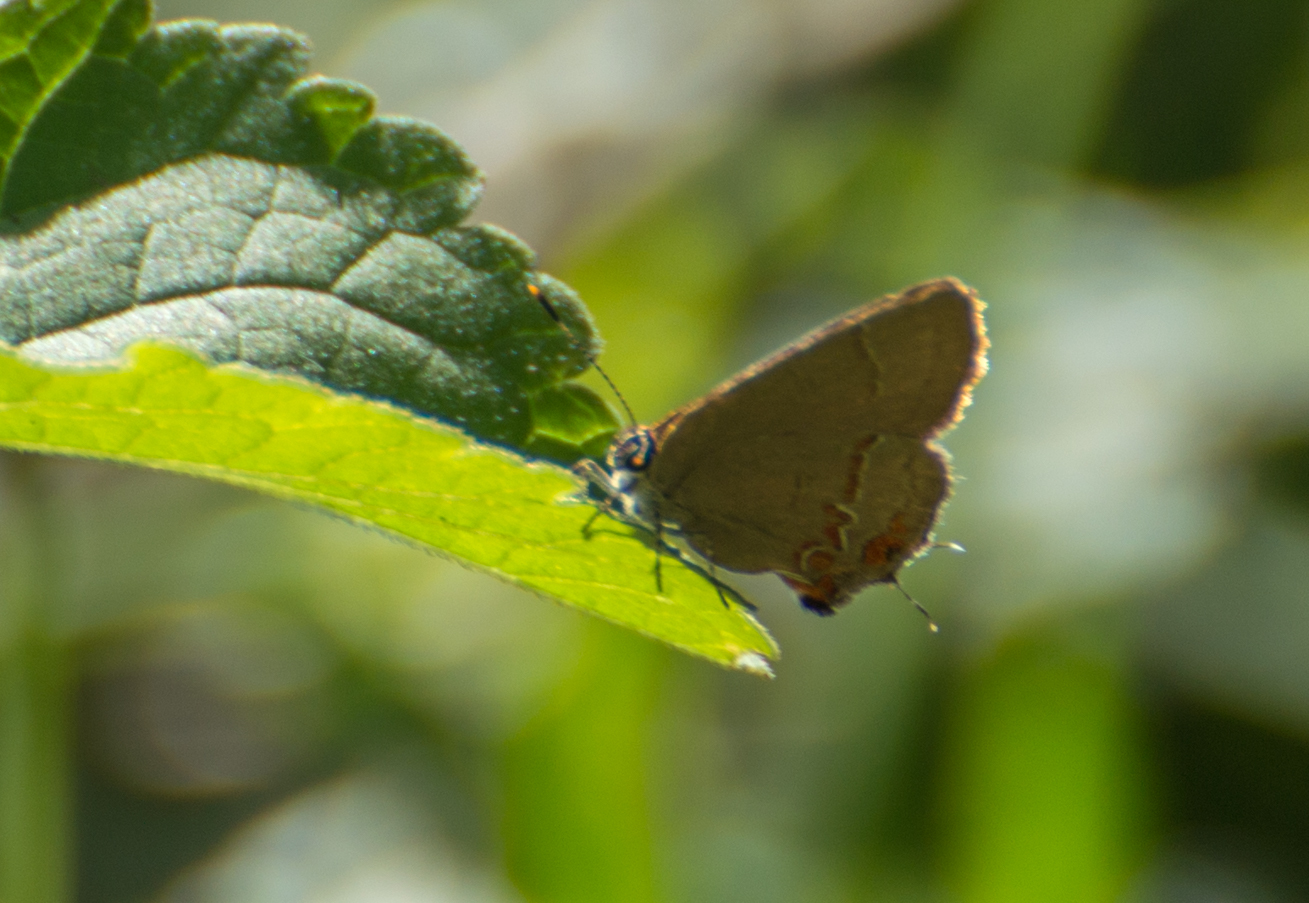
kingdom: Animalia
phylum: Arthropoda
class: Insecta
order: Lepidoptera
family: Lycaenidae
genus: Calycopis
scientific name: Calycopis caulonia
